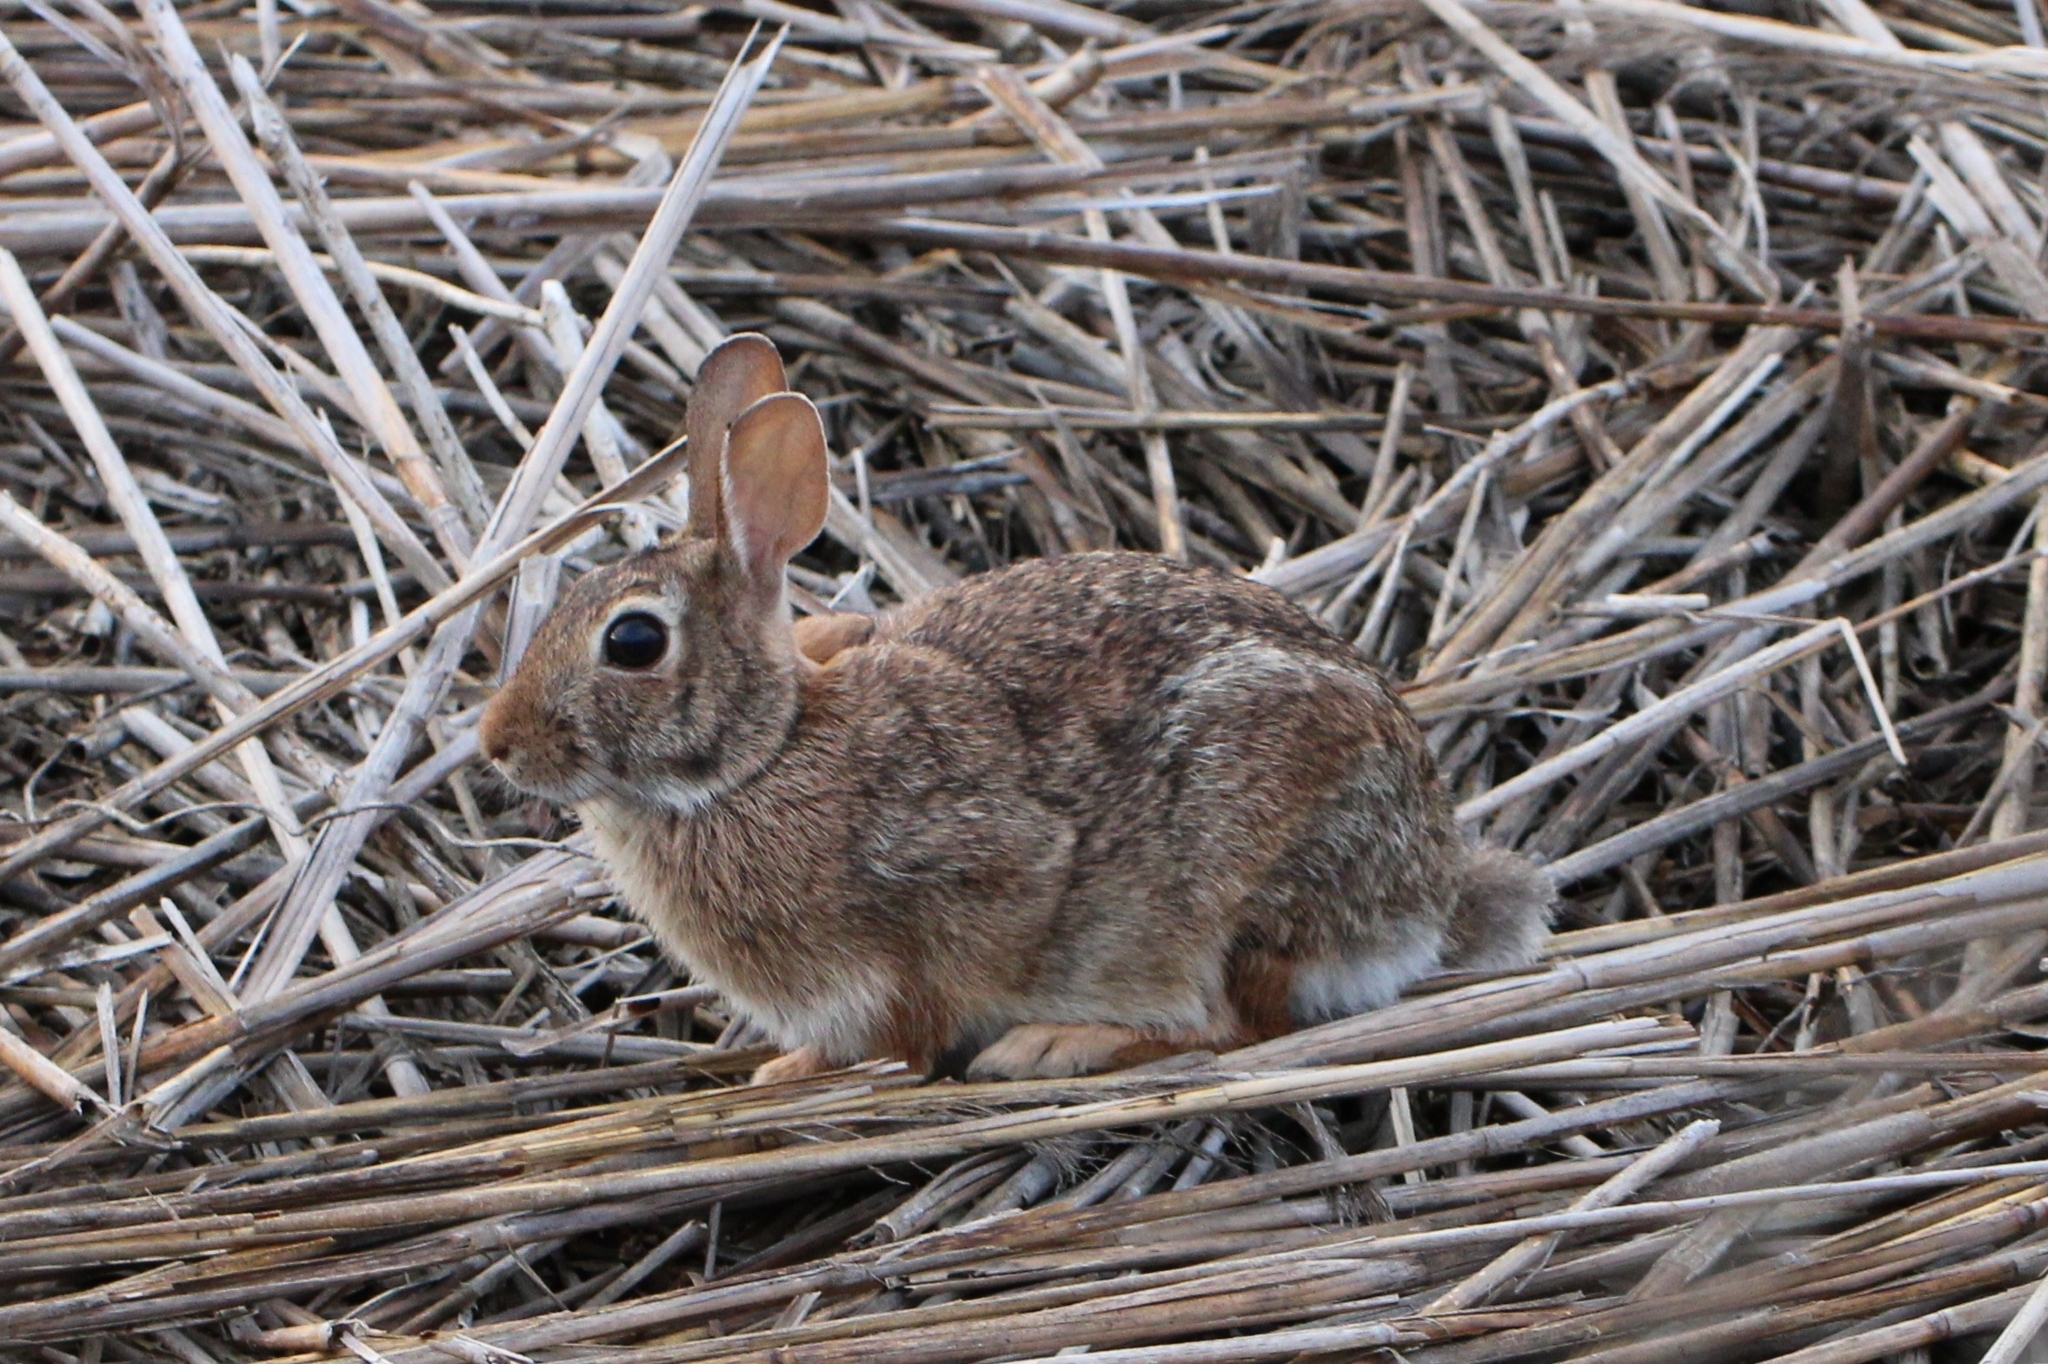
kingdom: Animalia
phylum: Chordata
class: Mammalia
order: Lagomorpha
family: Leporidae
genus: Sylvilagus
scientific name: Sylvilagus floridanus
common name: Eastern cottontail
